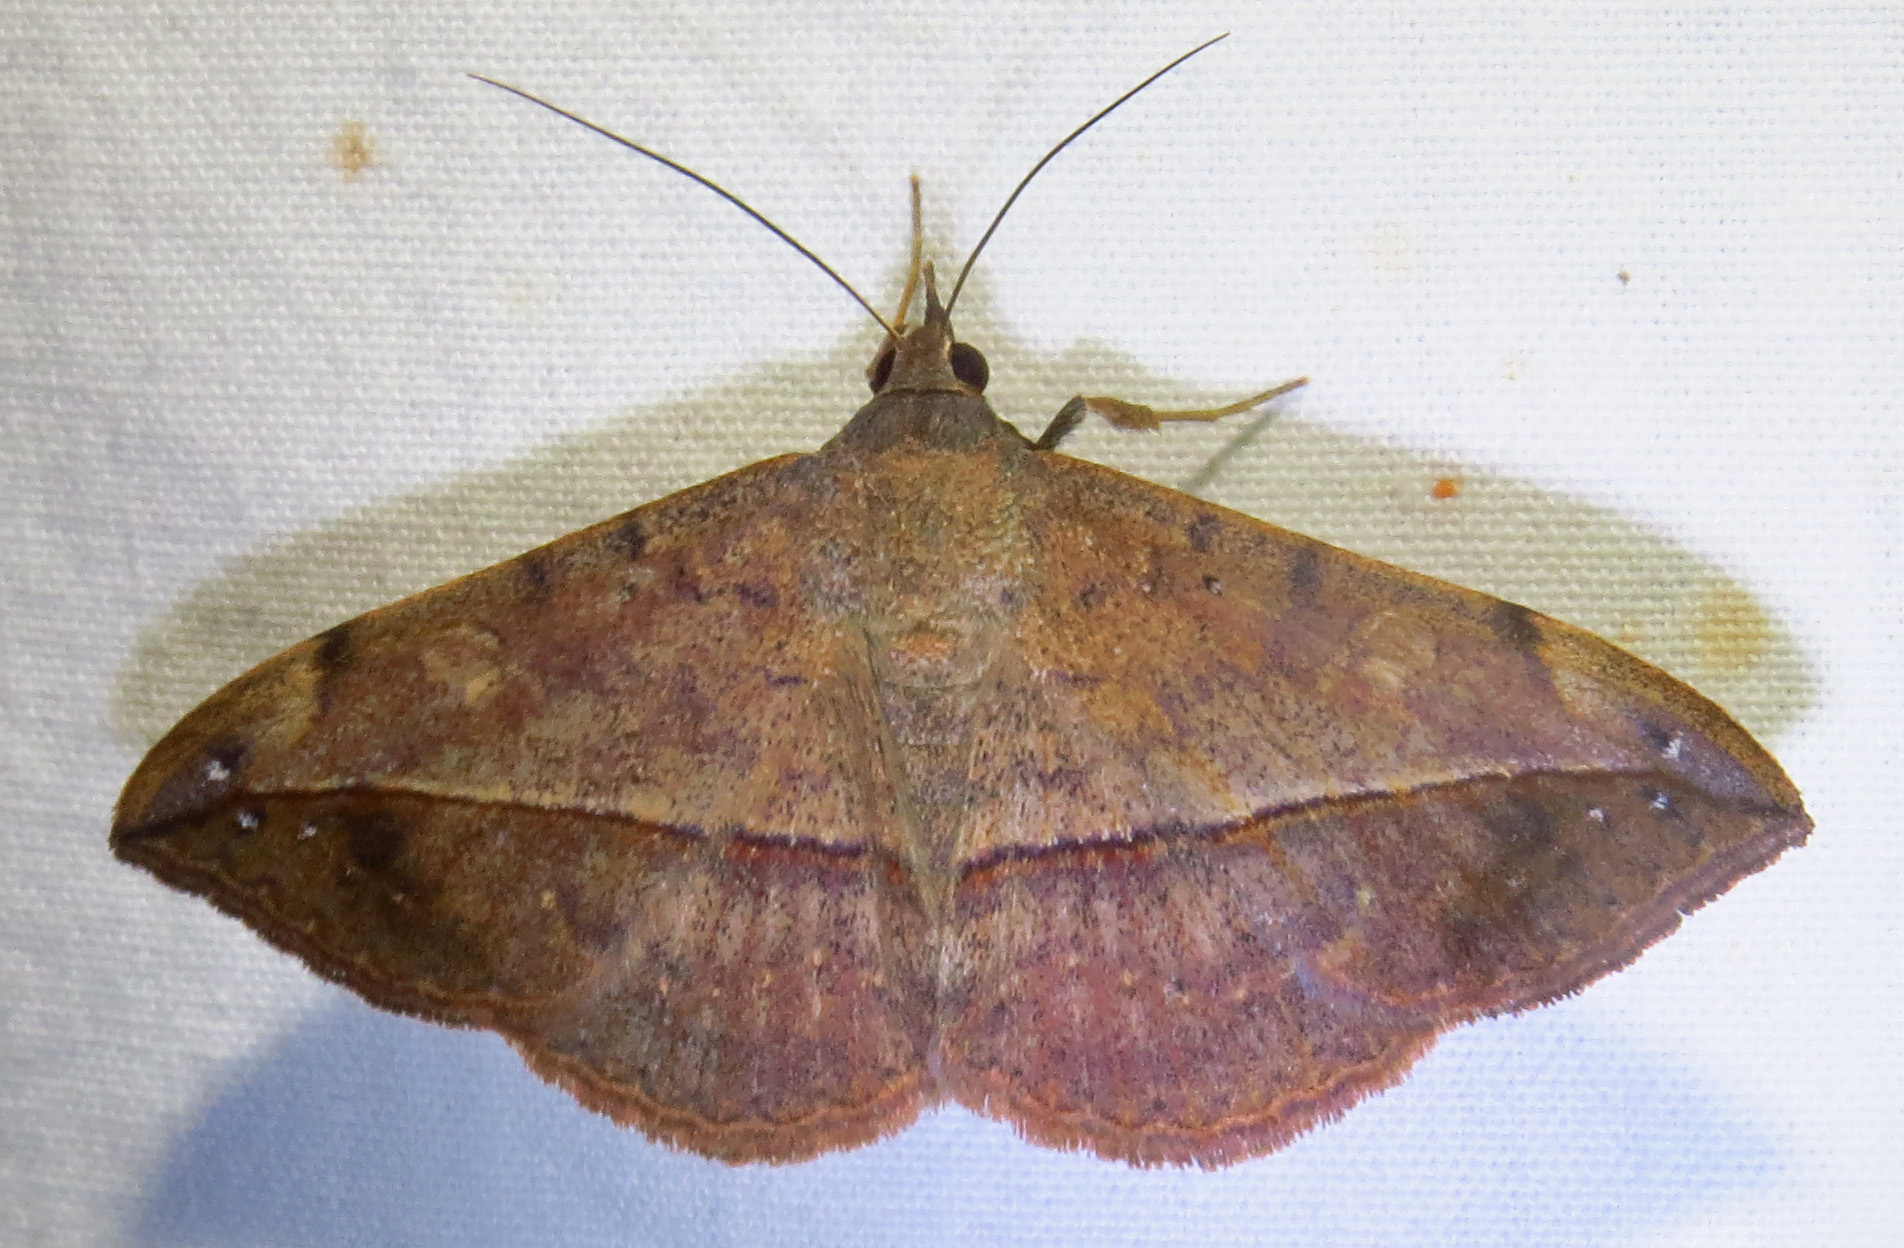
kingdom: Animalia
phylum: Arthropoda
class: Insecta
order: Lepidoptera
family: Erebidae
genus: Anticarsia
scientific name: Anticarsia gemmatalis
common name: Cutworm moth
